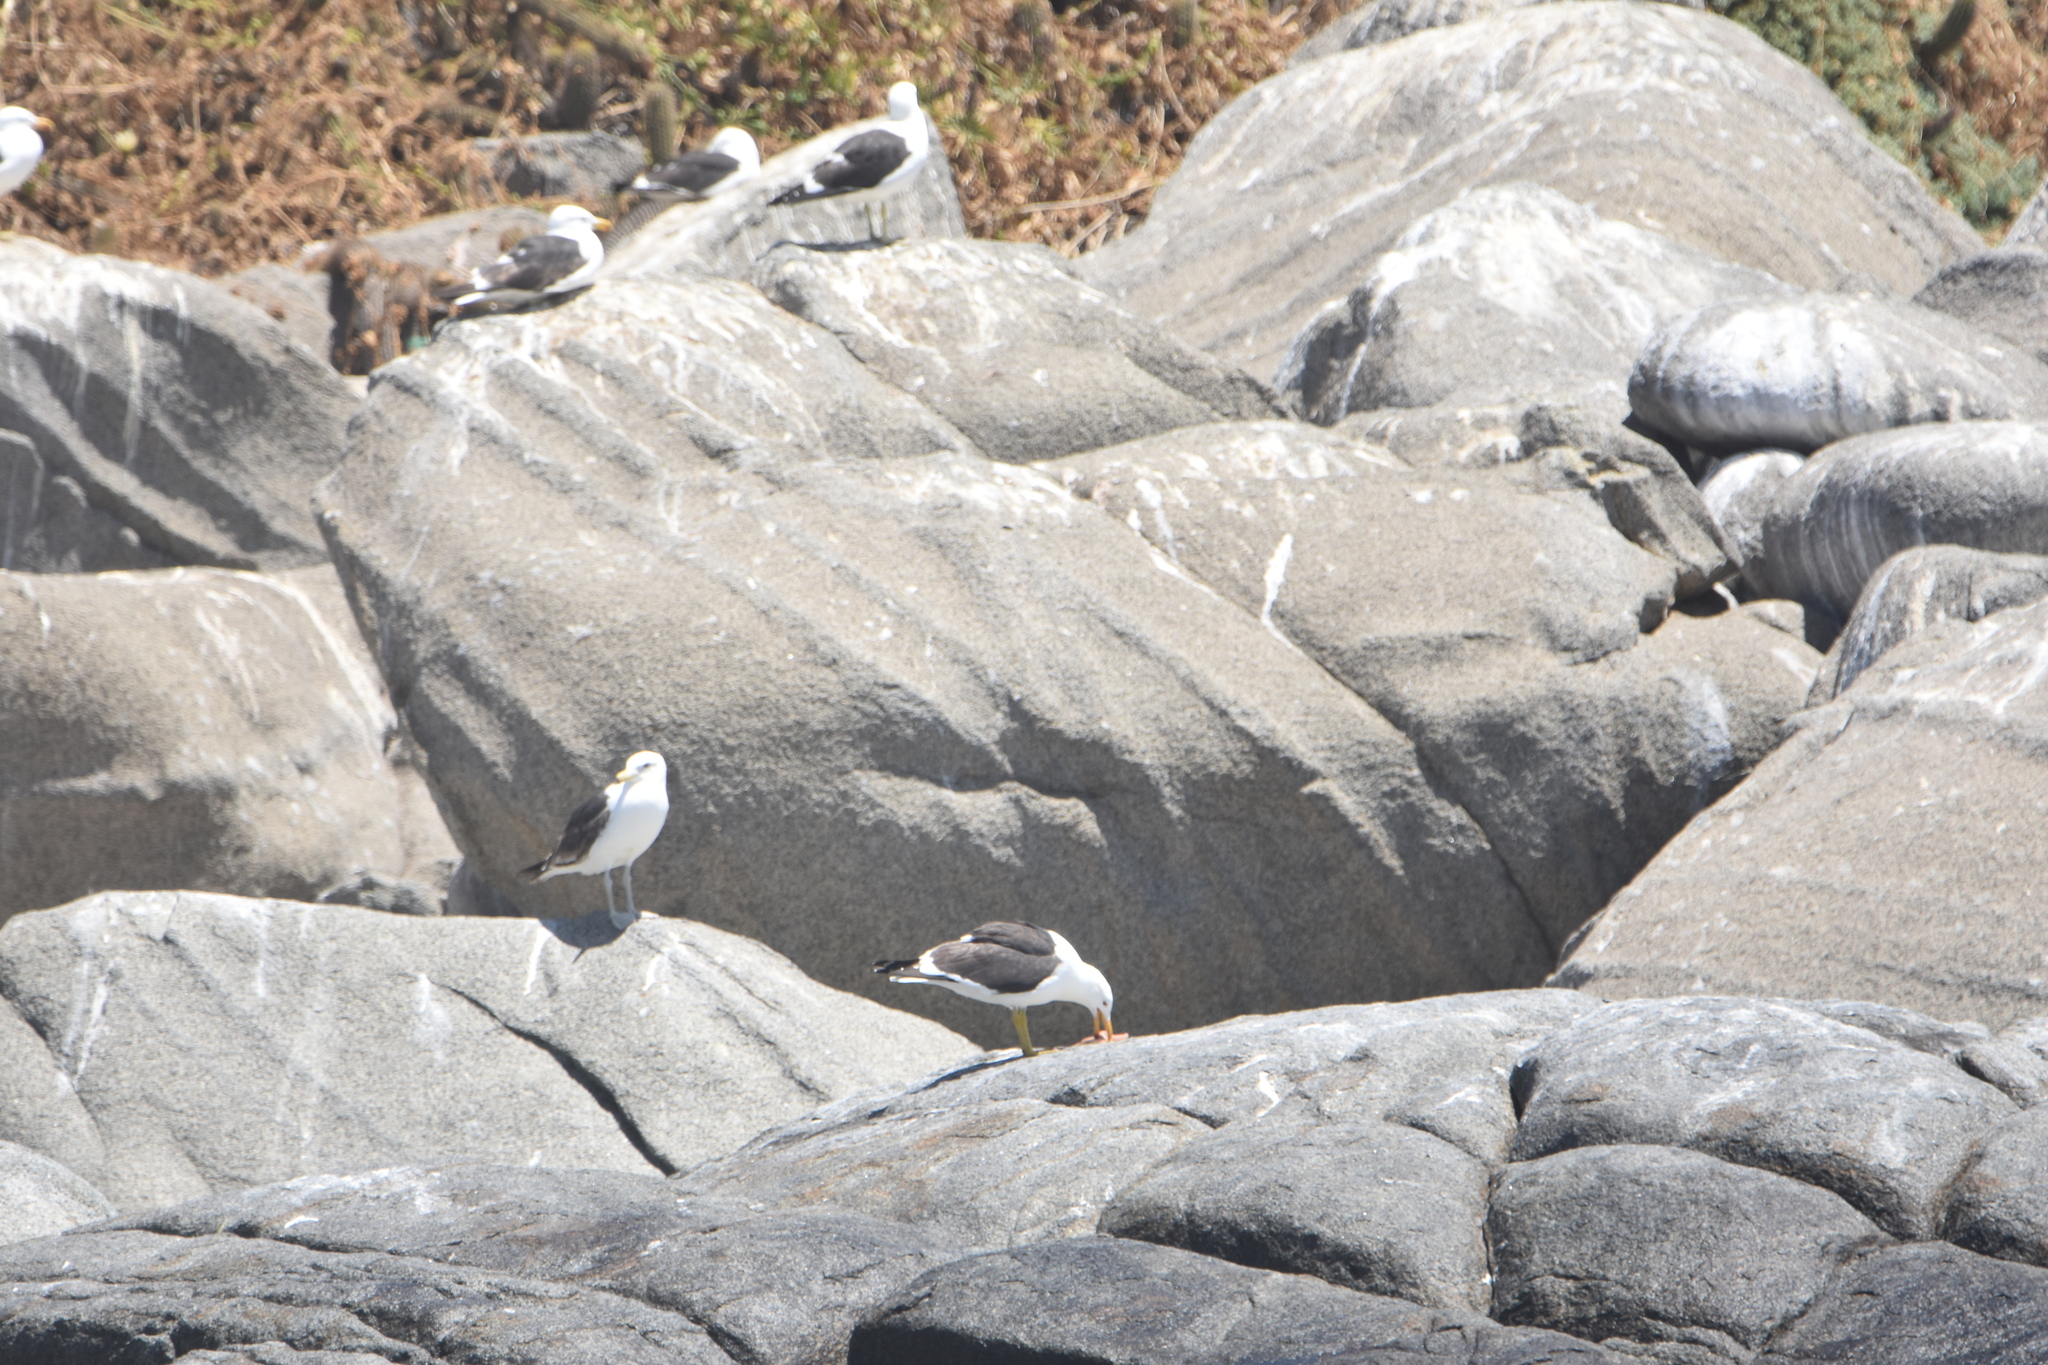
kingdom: Animalia
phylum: Chordata
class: Aves
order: Charadriiformes
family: Laridae
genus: Larus
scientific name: Larus dominicanus
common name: Kelp gull
